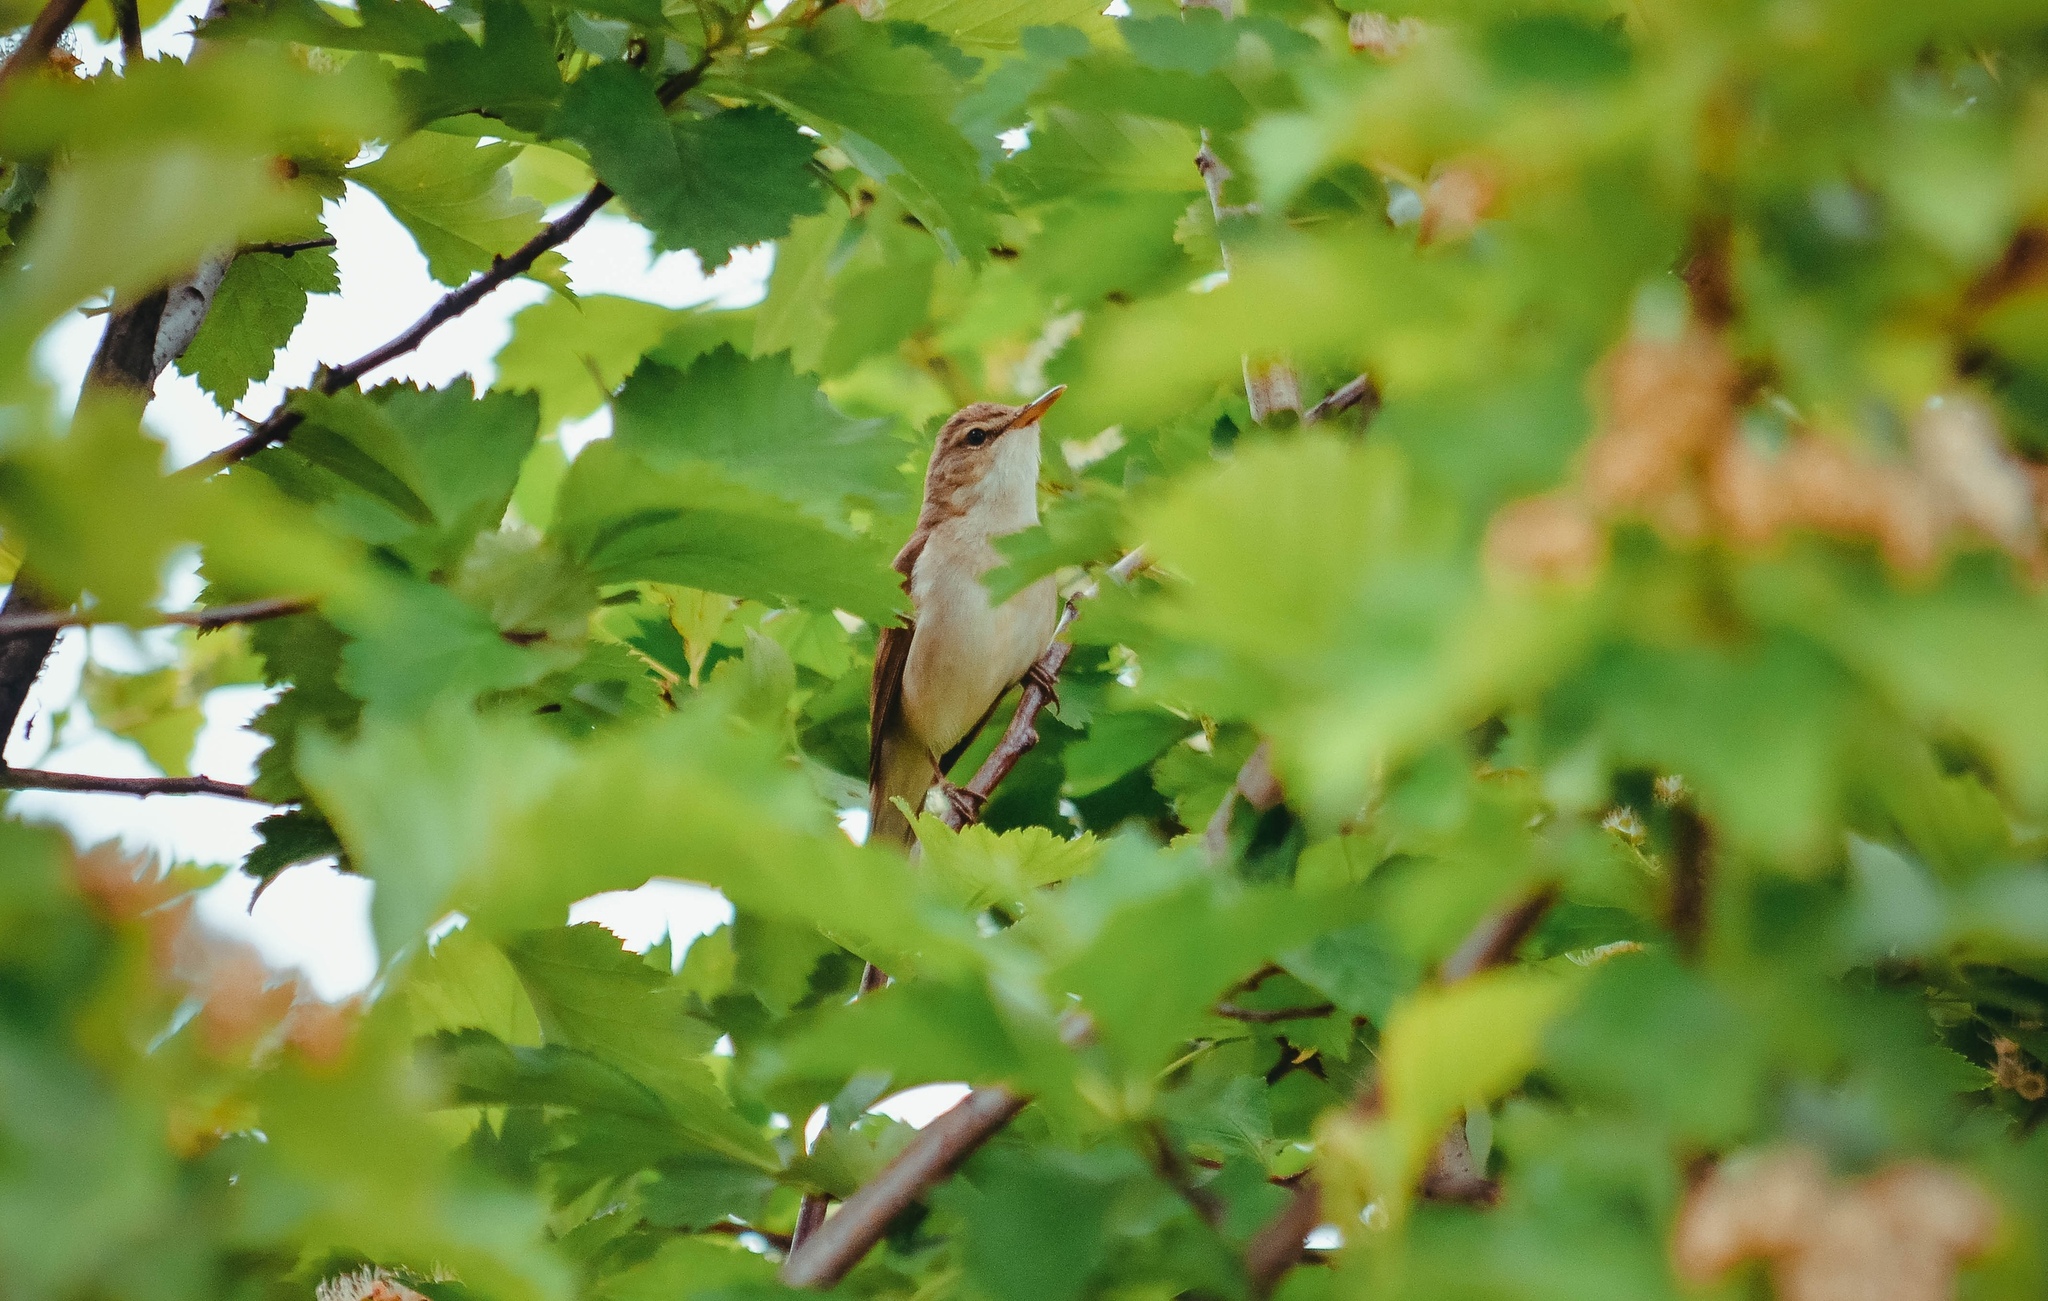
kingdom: Animalia
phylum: Chordata
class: Aves
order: Passeriformes
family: Acrocephalidae
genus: Acrocephalus
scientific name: Acrocephalus dumetorum
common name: Blyth's reed warbler
